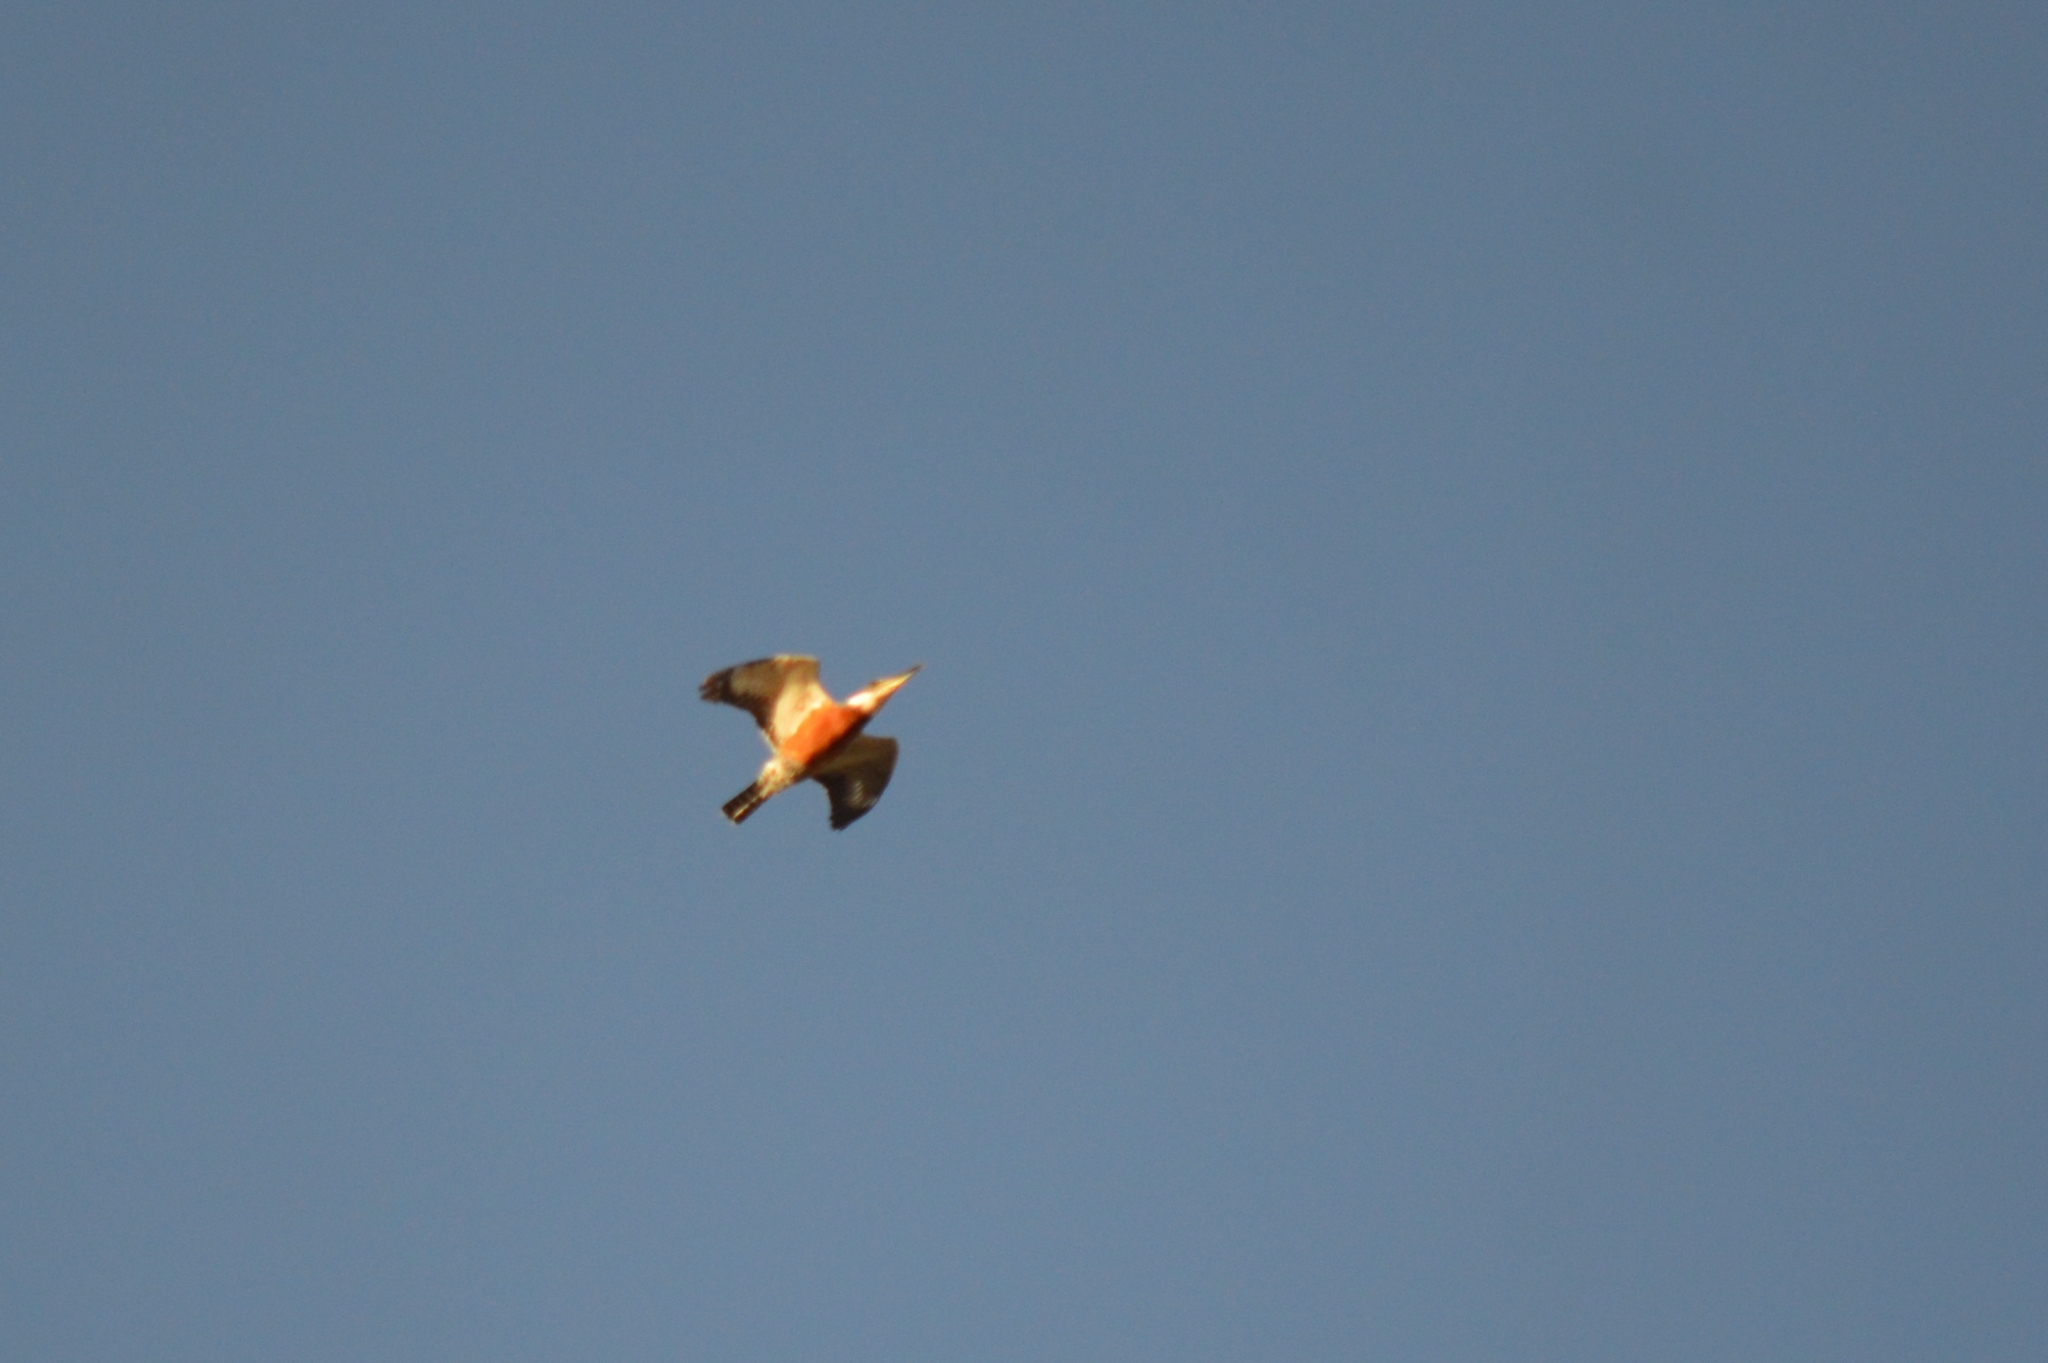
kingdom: Animalia
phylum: Chordata
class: Aves
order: Coraciiformes
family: Alcedinidae
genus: Megaceryle
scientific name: Megaceryle torquata
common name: Ringed kingfisher
